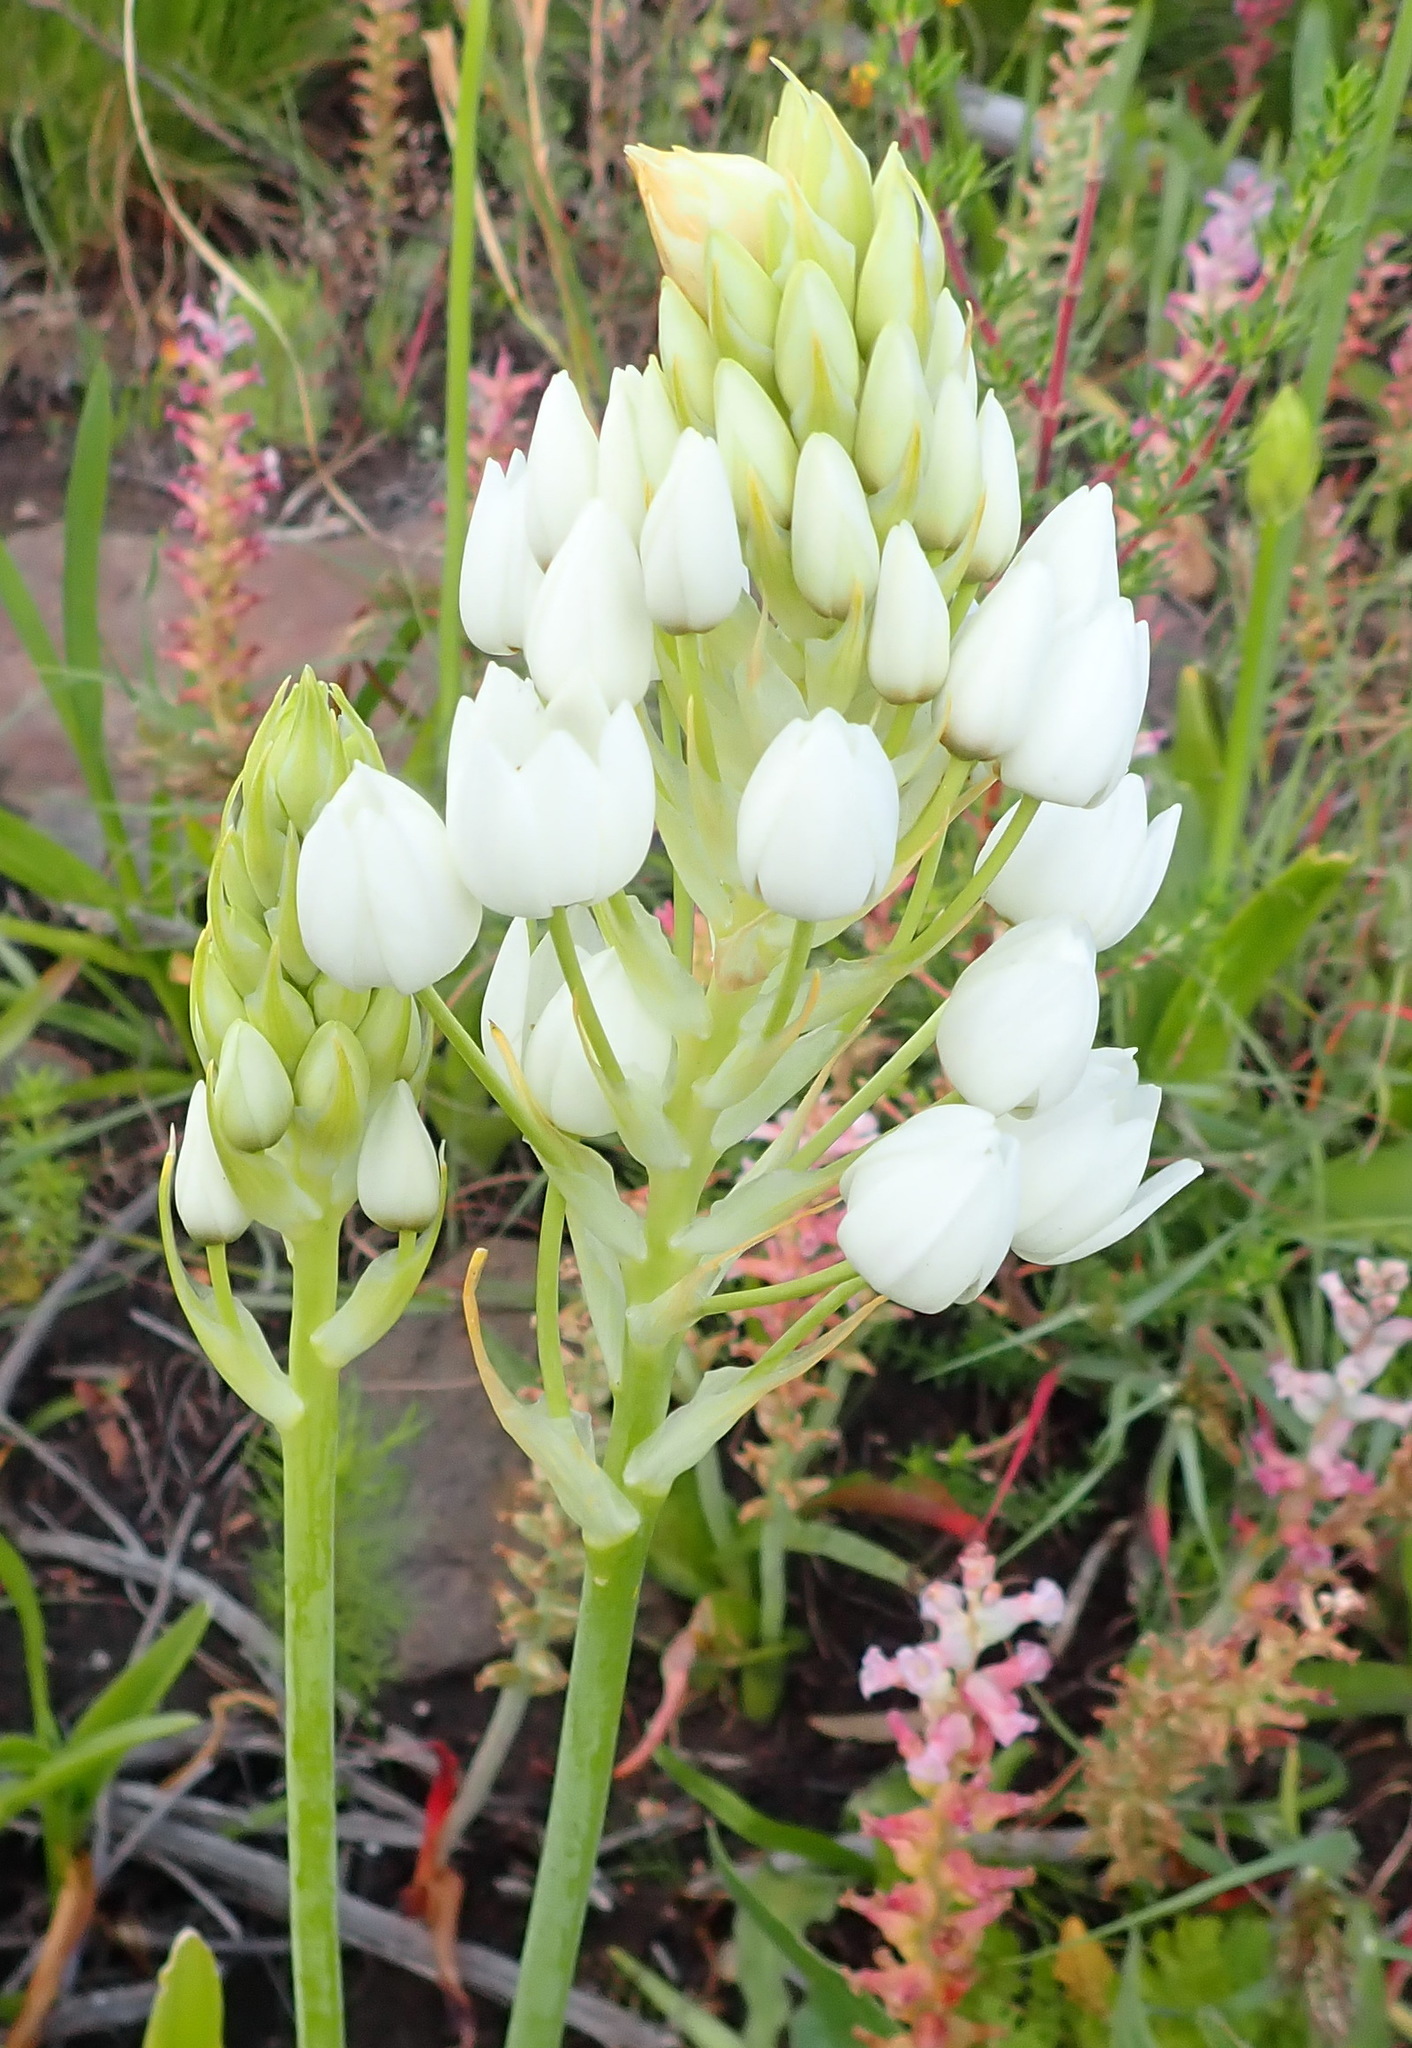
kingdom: Plantae
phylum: Tracheophyta
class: Liliopsida
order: Asparagales
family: Asparagaceae
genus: Ornithogalum
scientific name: Ornithogalum thyrsoides
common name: Chincherinchee
